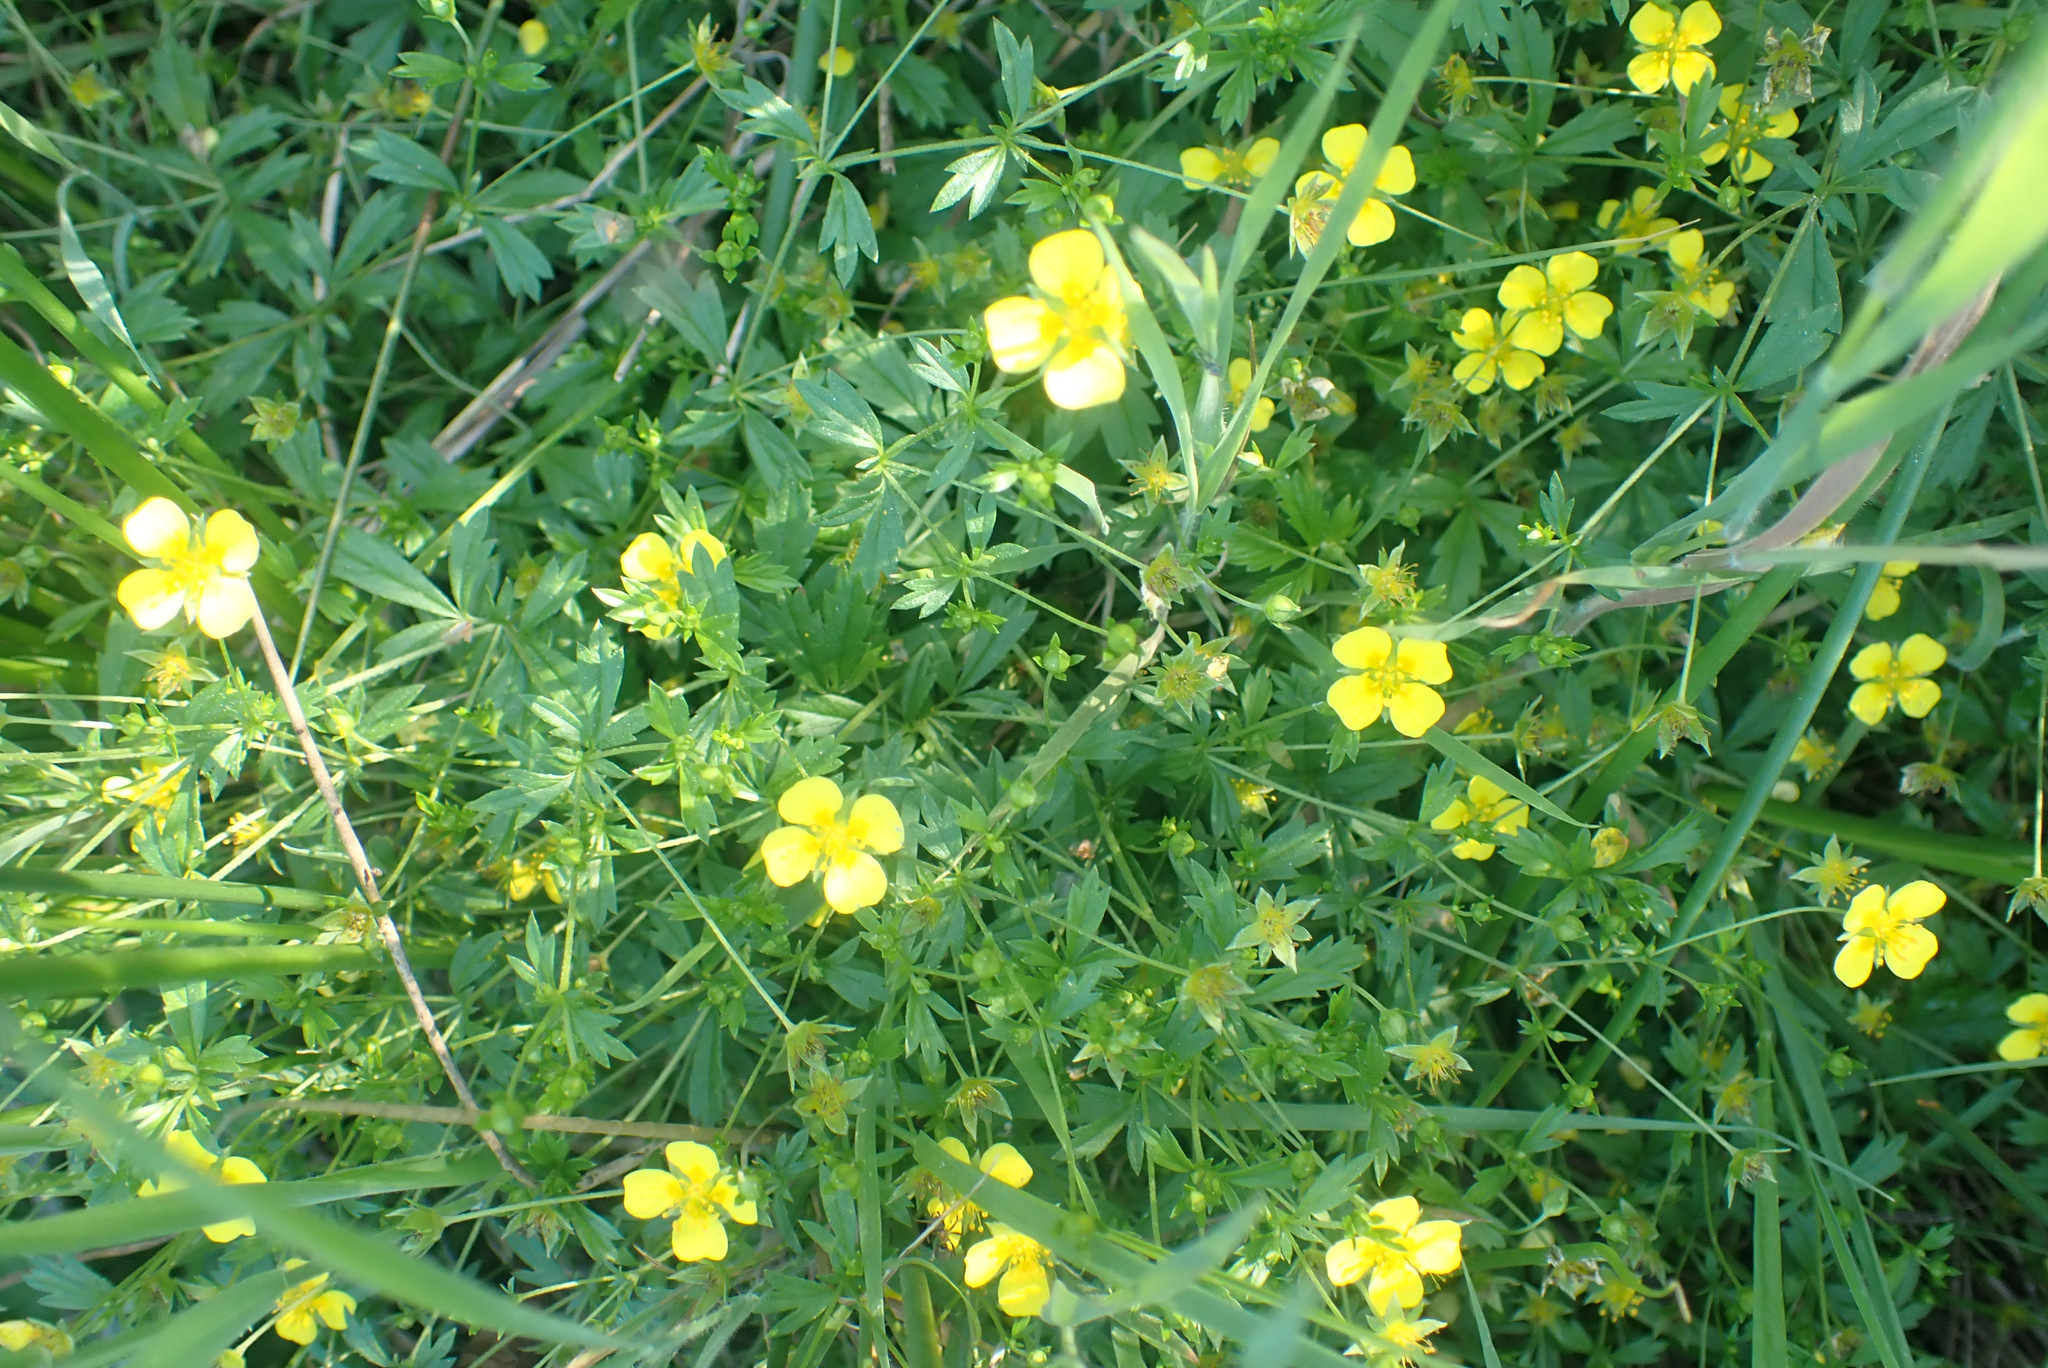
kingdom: Plantae
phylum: Tracheophyta
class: Magnoliopsida
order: Rosales
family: Rosaceae
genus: Potentilla
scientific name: Potentilla erecta
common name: Tormentil
